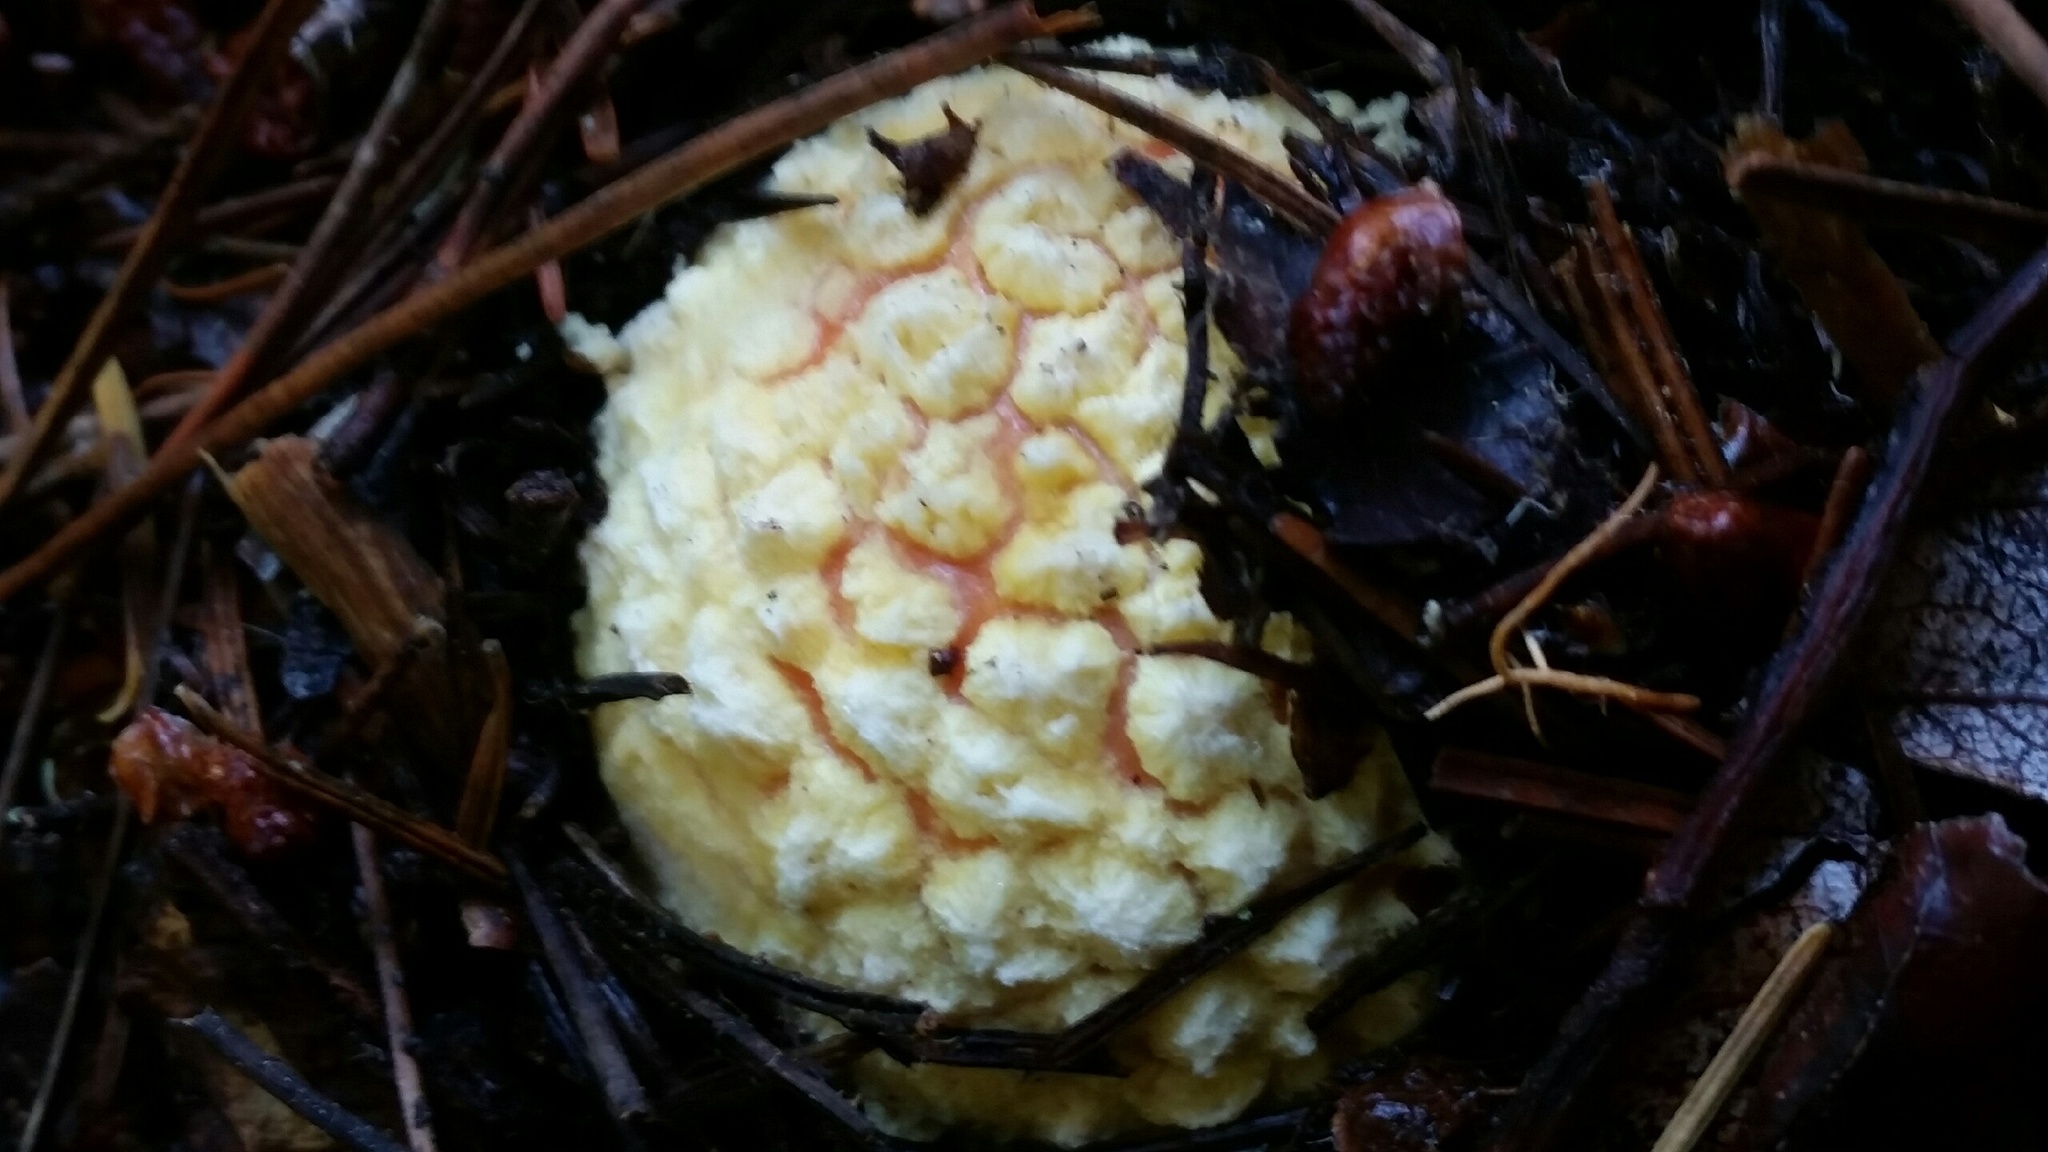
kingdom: Fungi
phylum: Basidiomycota
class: Agaricomycetes
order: Agaricales
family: Amanitaceae
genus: Amanita
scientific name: Amanita muscaria
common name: Fly agaric
